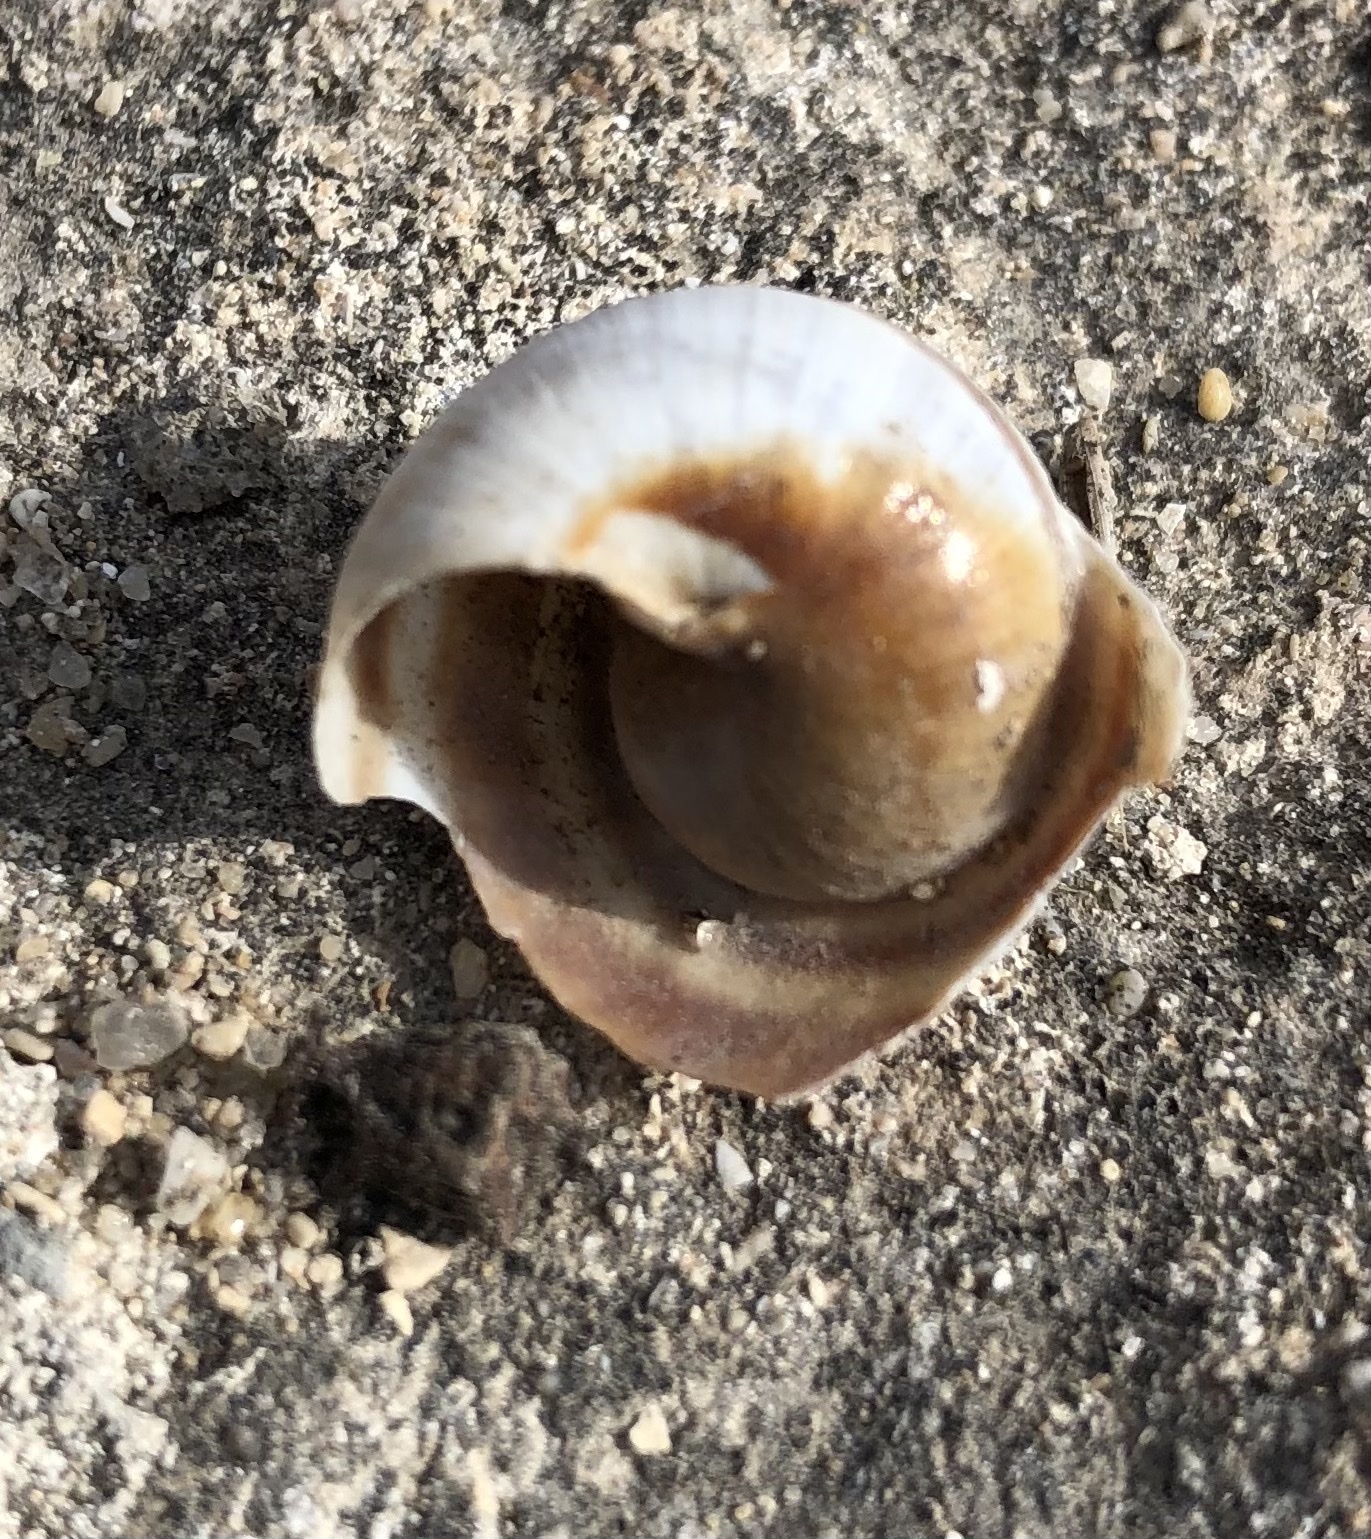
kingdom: Animalia
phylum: Mollusca
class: Gastropoda
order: Stylommatophora
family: Helicidae
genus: Helix
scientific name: Helix pronuba
